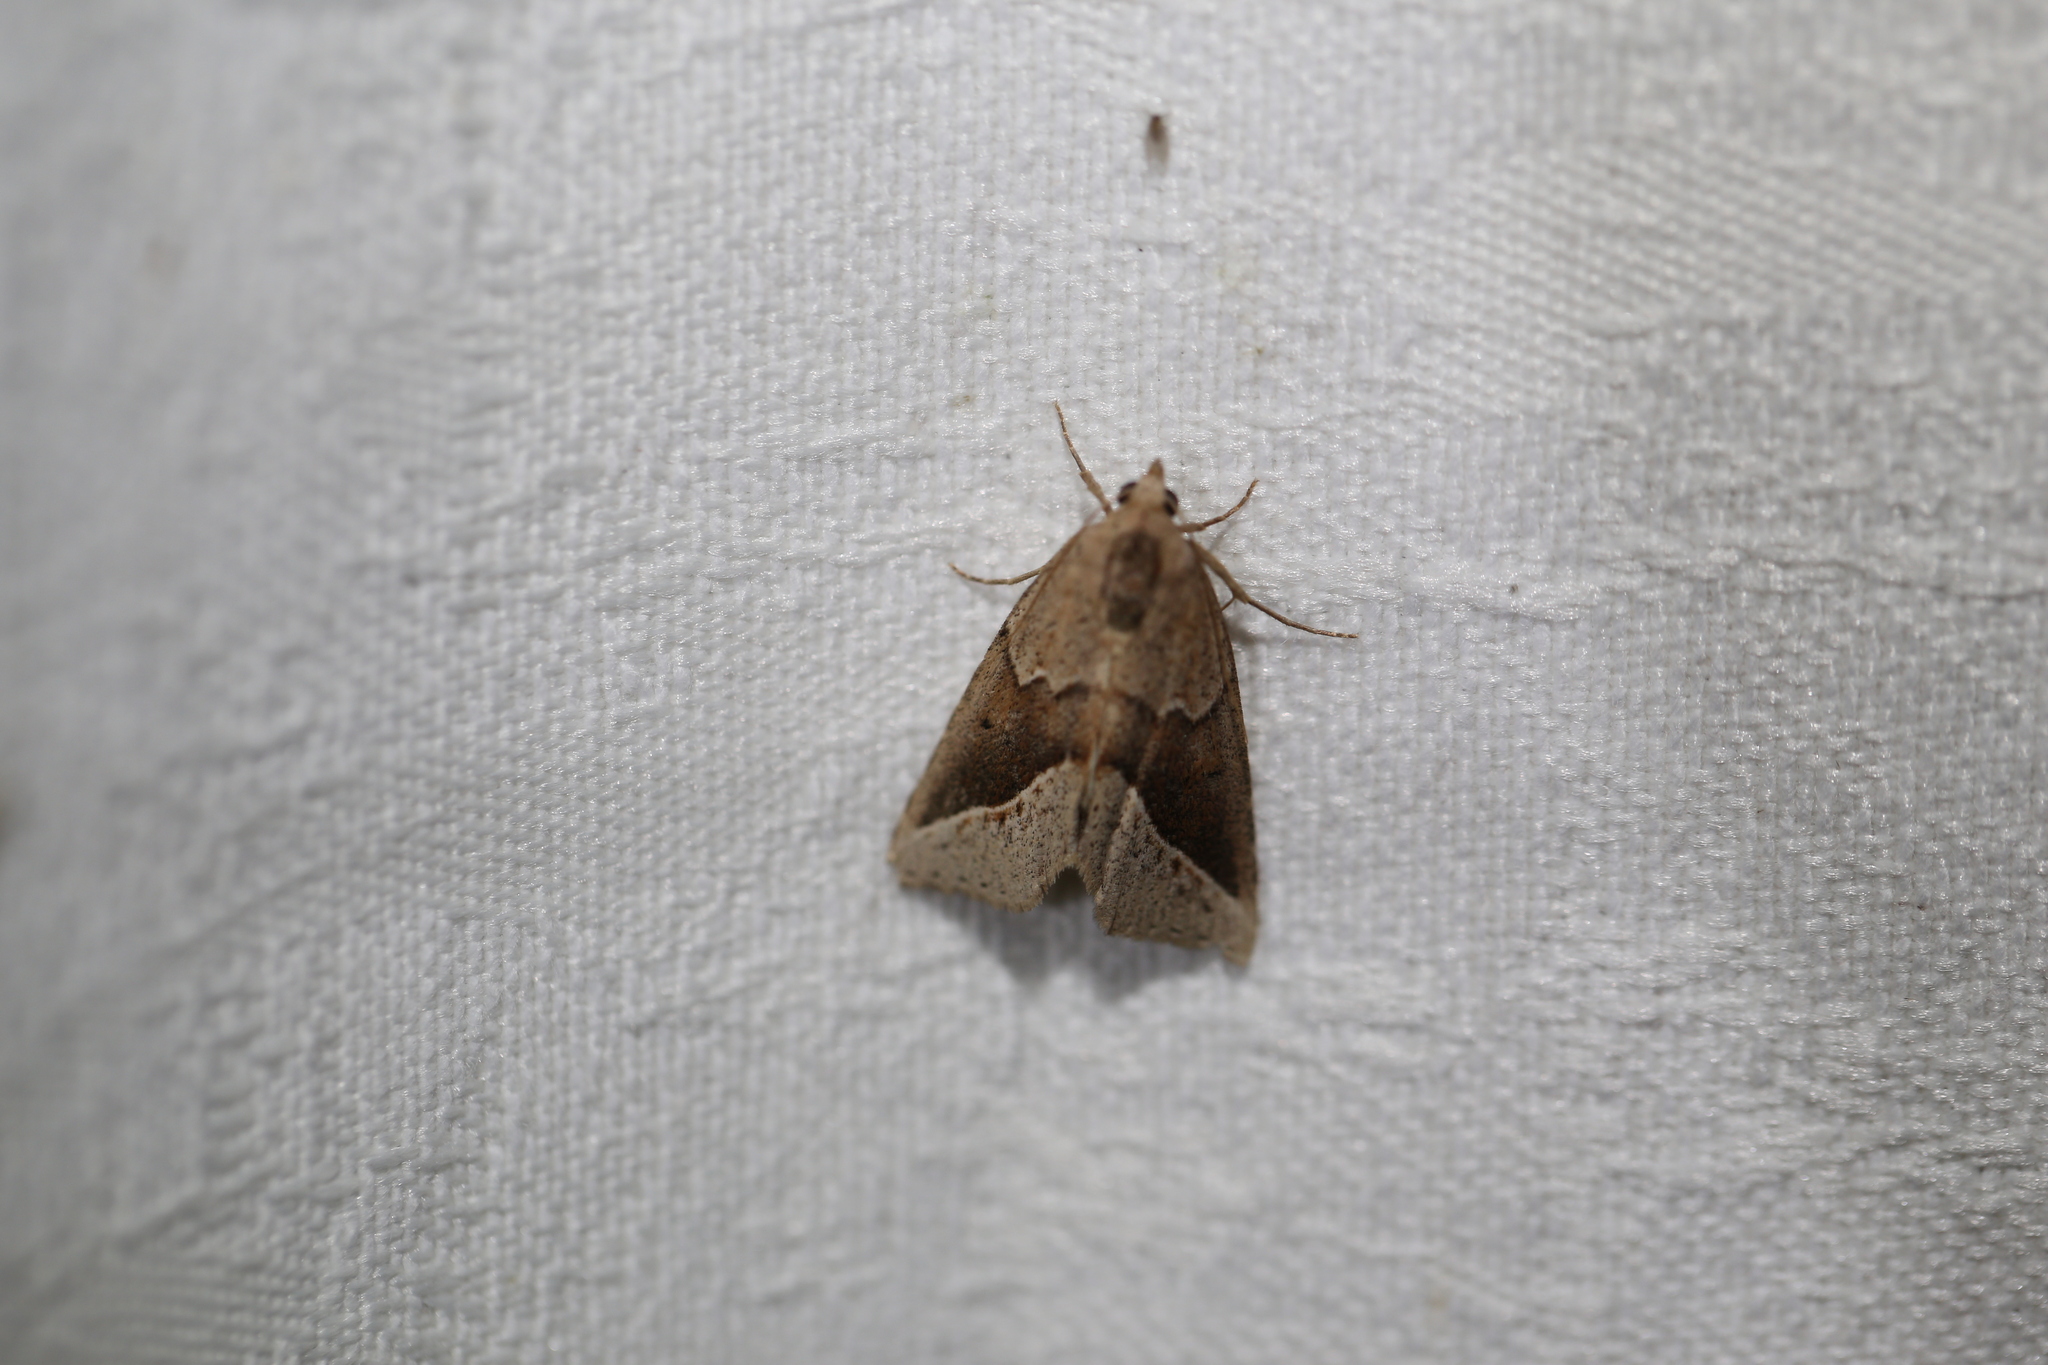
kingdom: Animalia
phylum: Arthropoda
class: Insecta
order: Lepidoptera
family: Erebidae
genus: Lophotoma
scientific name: Lophotoma metabula
